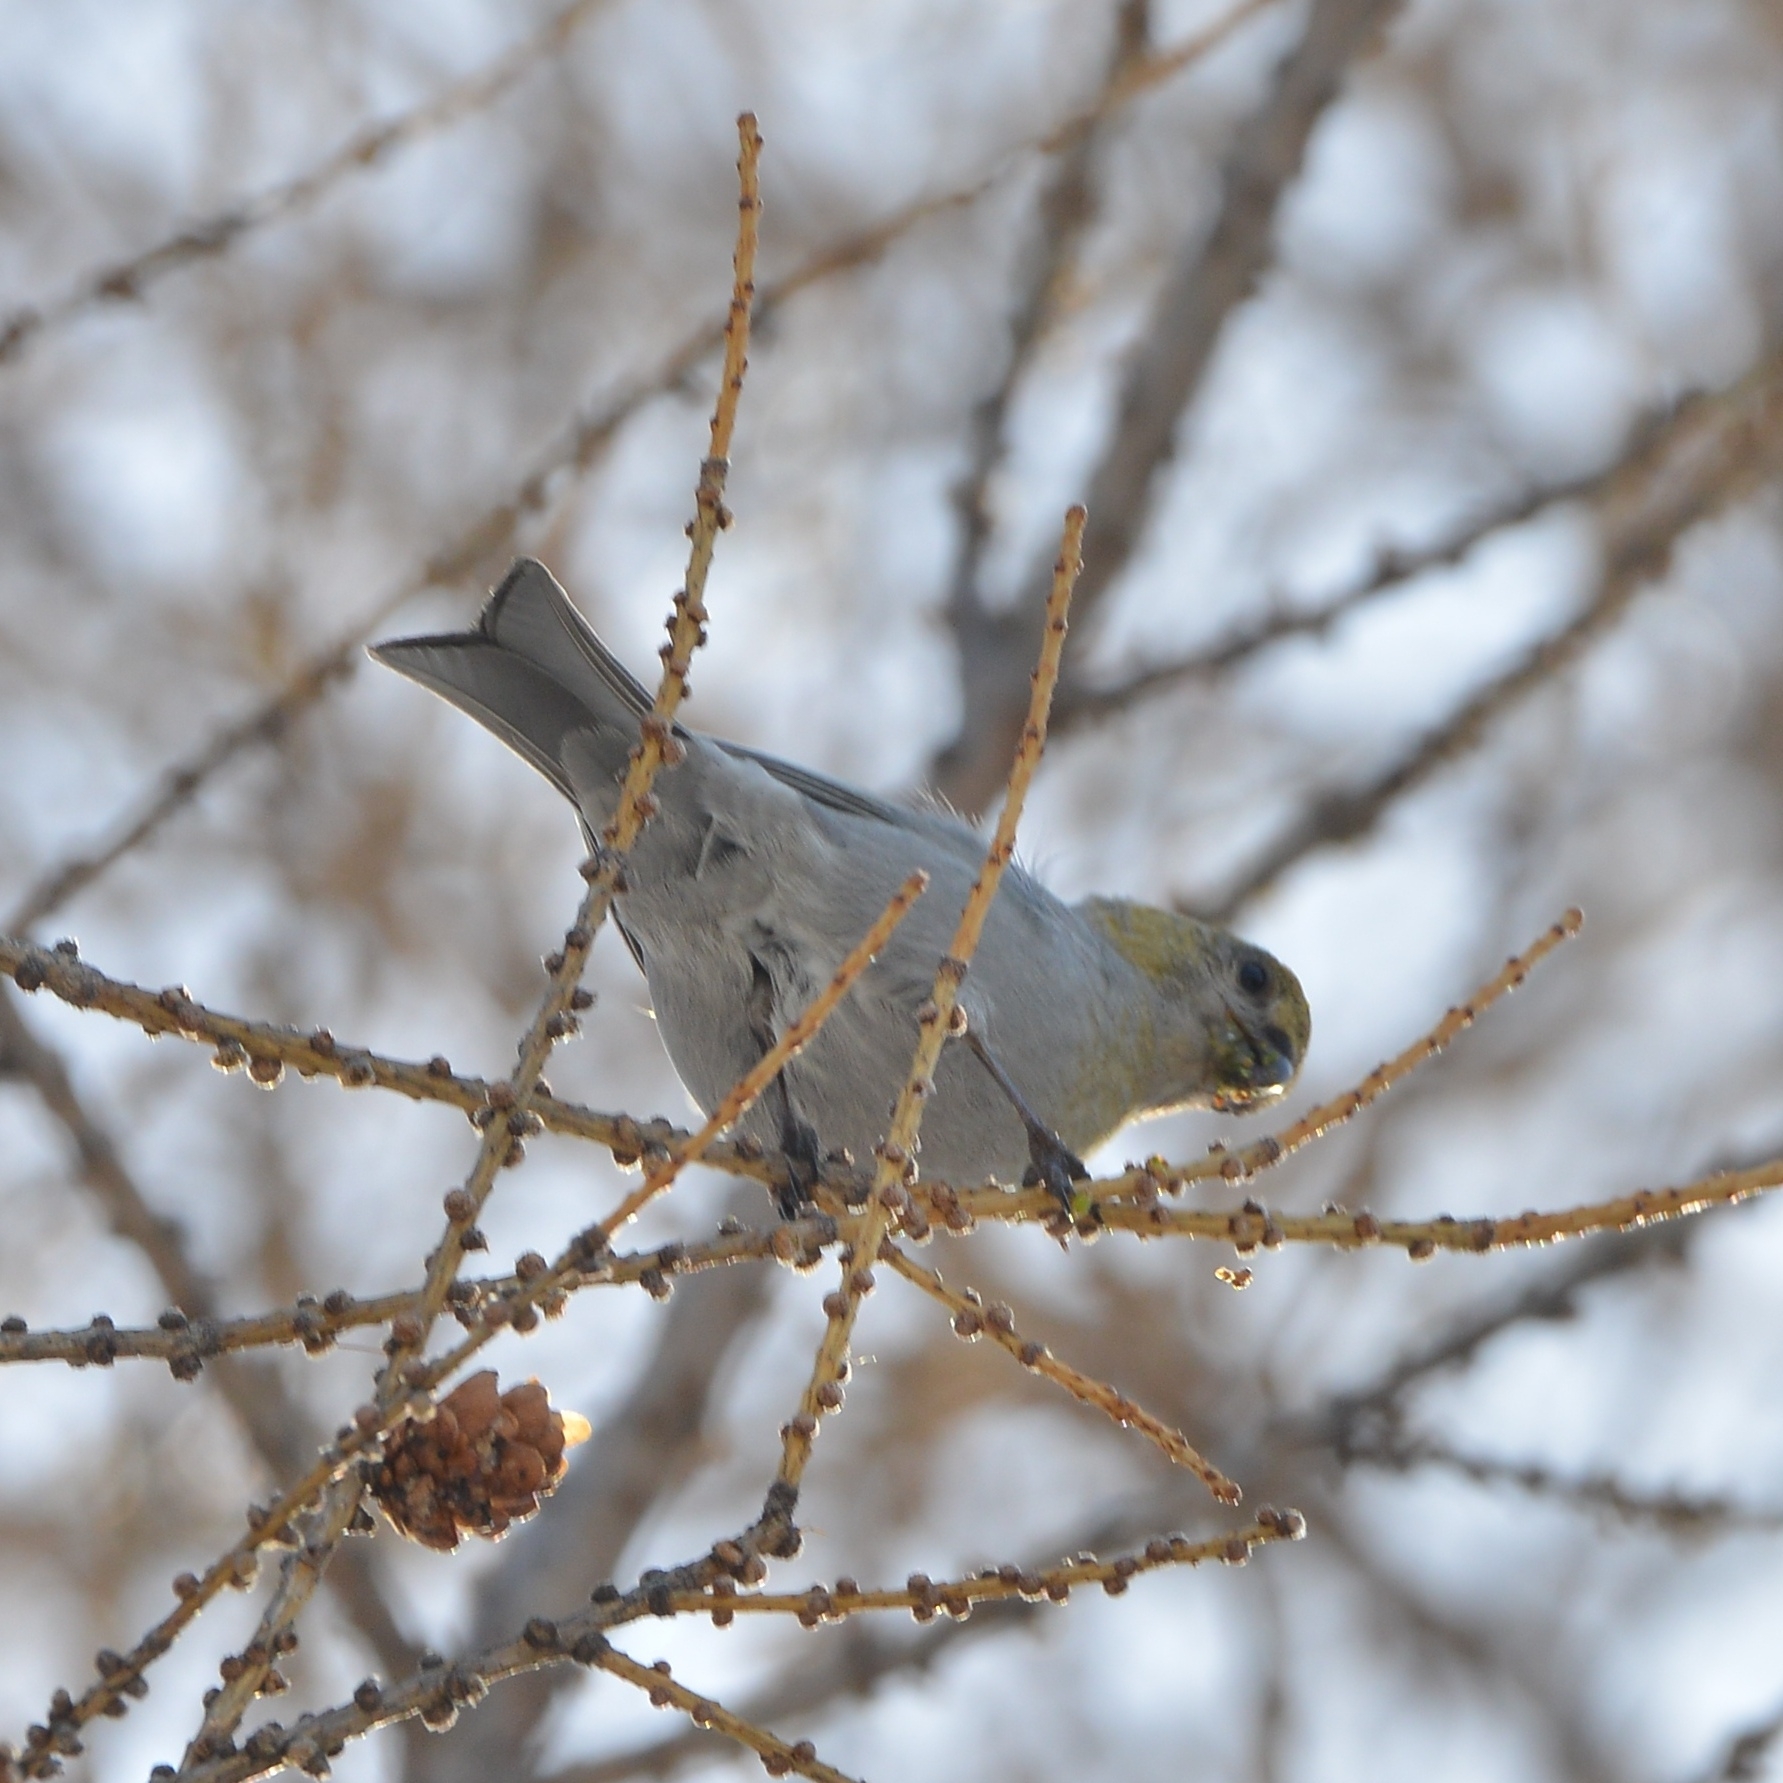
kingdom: Animalia
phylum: Chordata
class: Aves
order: Passeriformes
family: Fringillidae
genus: Pinicola
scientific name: Pinicola enucleator
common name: Pine grosbeak
